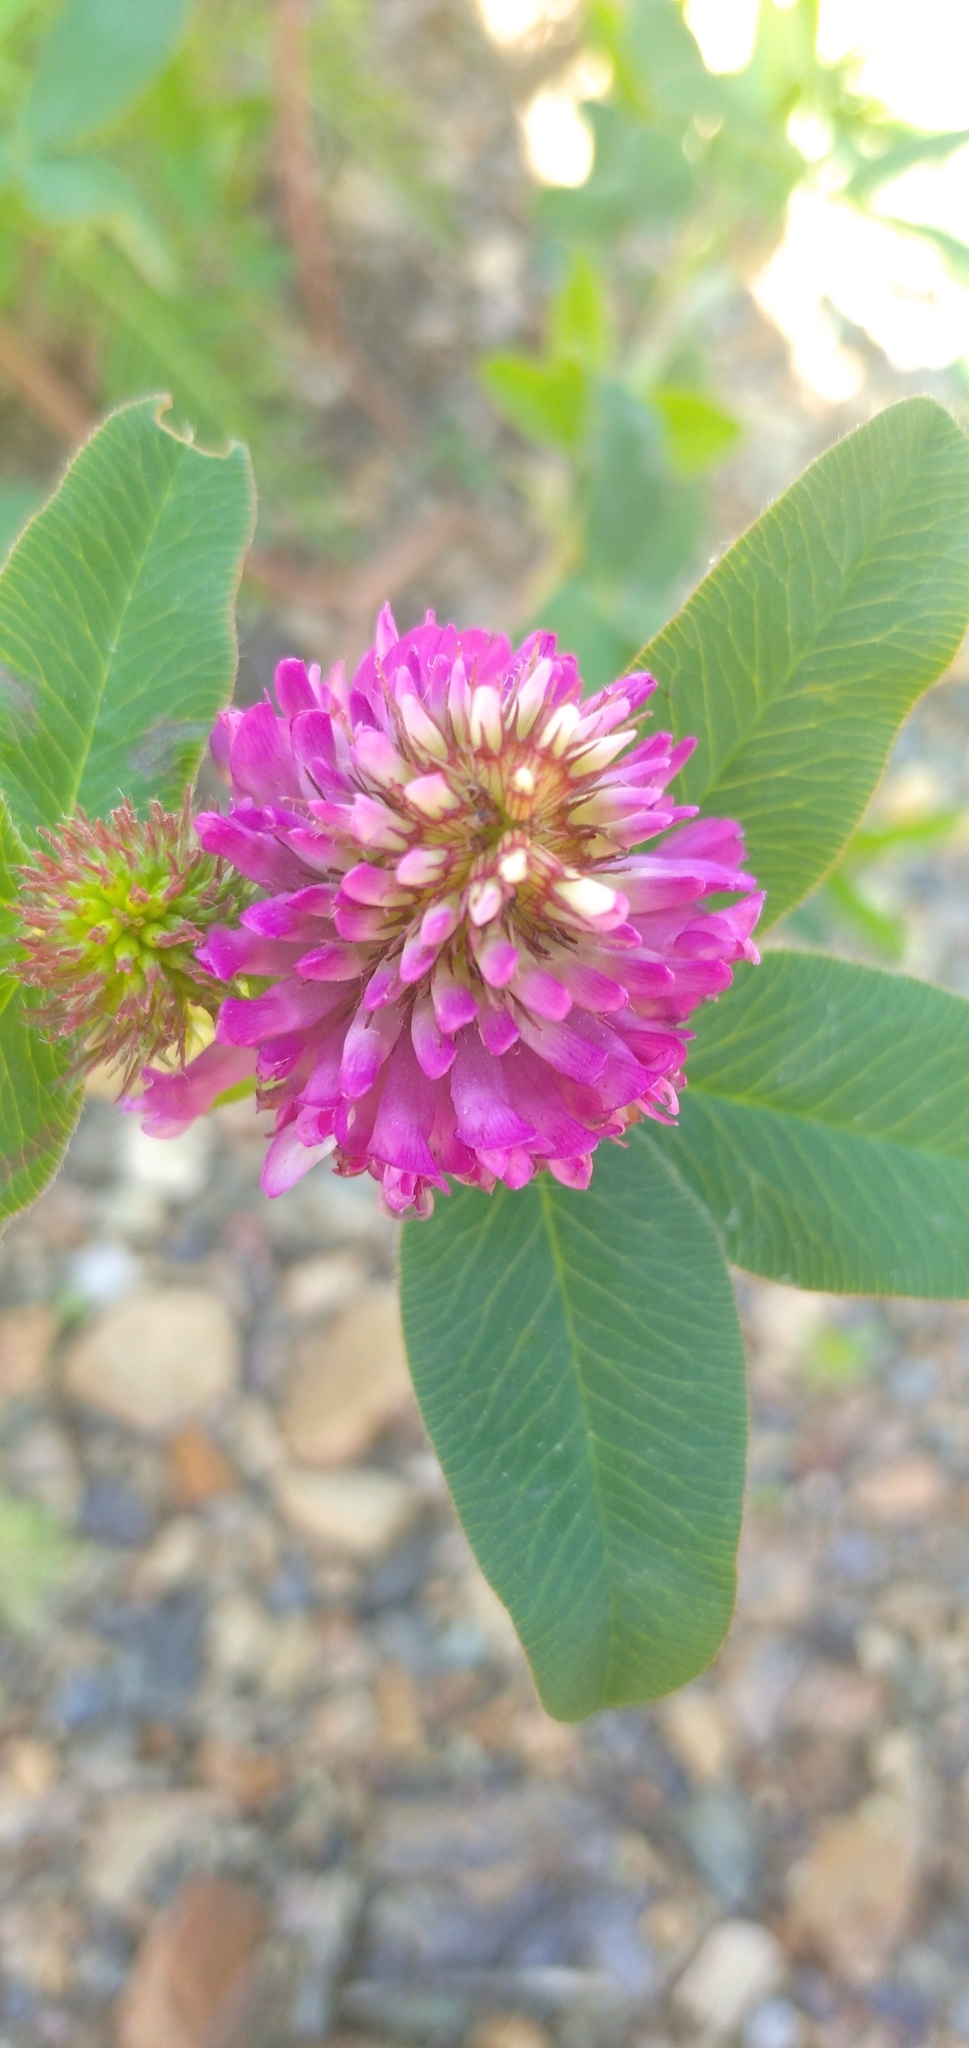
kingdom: Plantae
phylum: Tracheophyta
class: Magnoliopsida
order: Fabales
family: Fabaceae
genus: Trifolium
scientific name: Trifolium medium
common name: Zigzag clover
